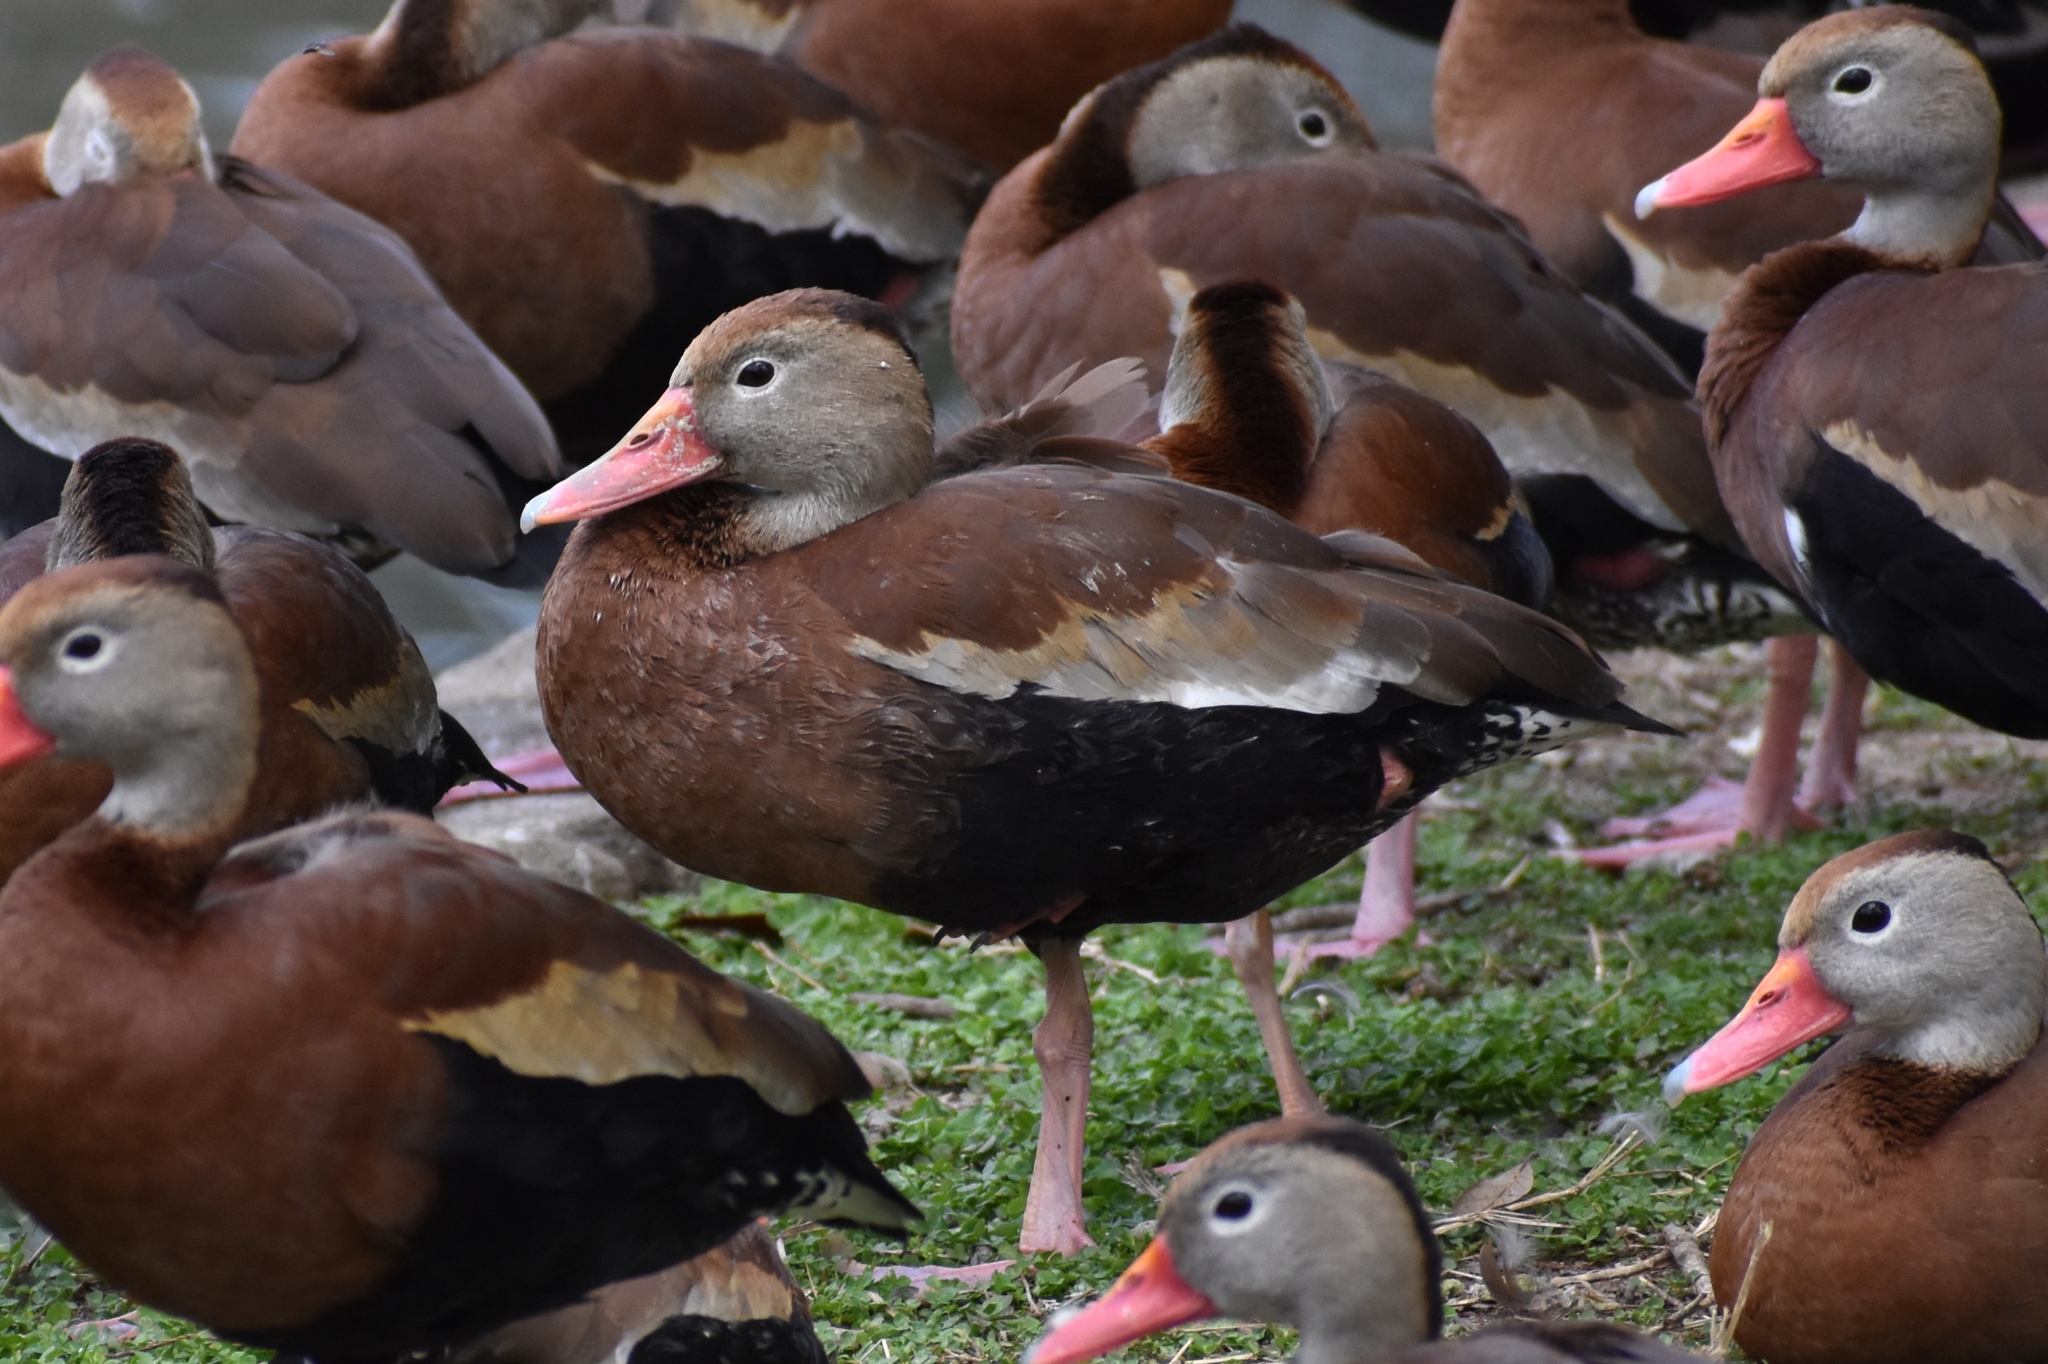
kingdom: Animalia
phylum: Chordata
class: Aves
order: Anseriformes
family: Anatidae
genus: Dendrocygna
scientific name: Dendrocygna autumnalis
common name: Black-bellied whistling duck
